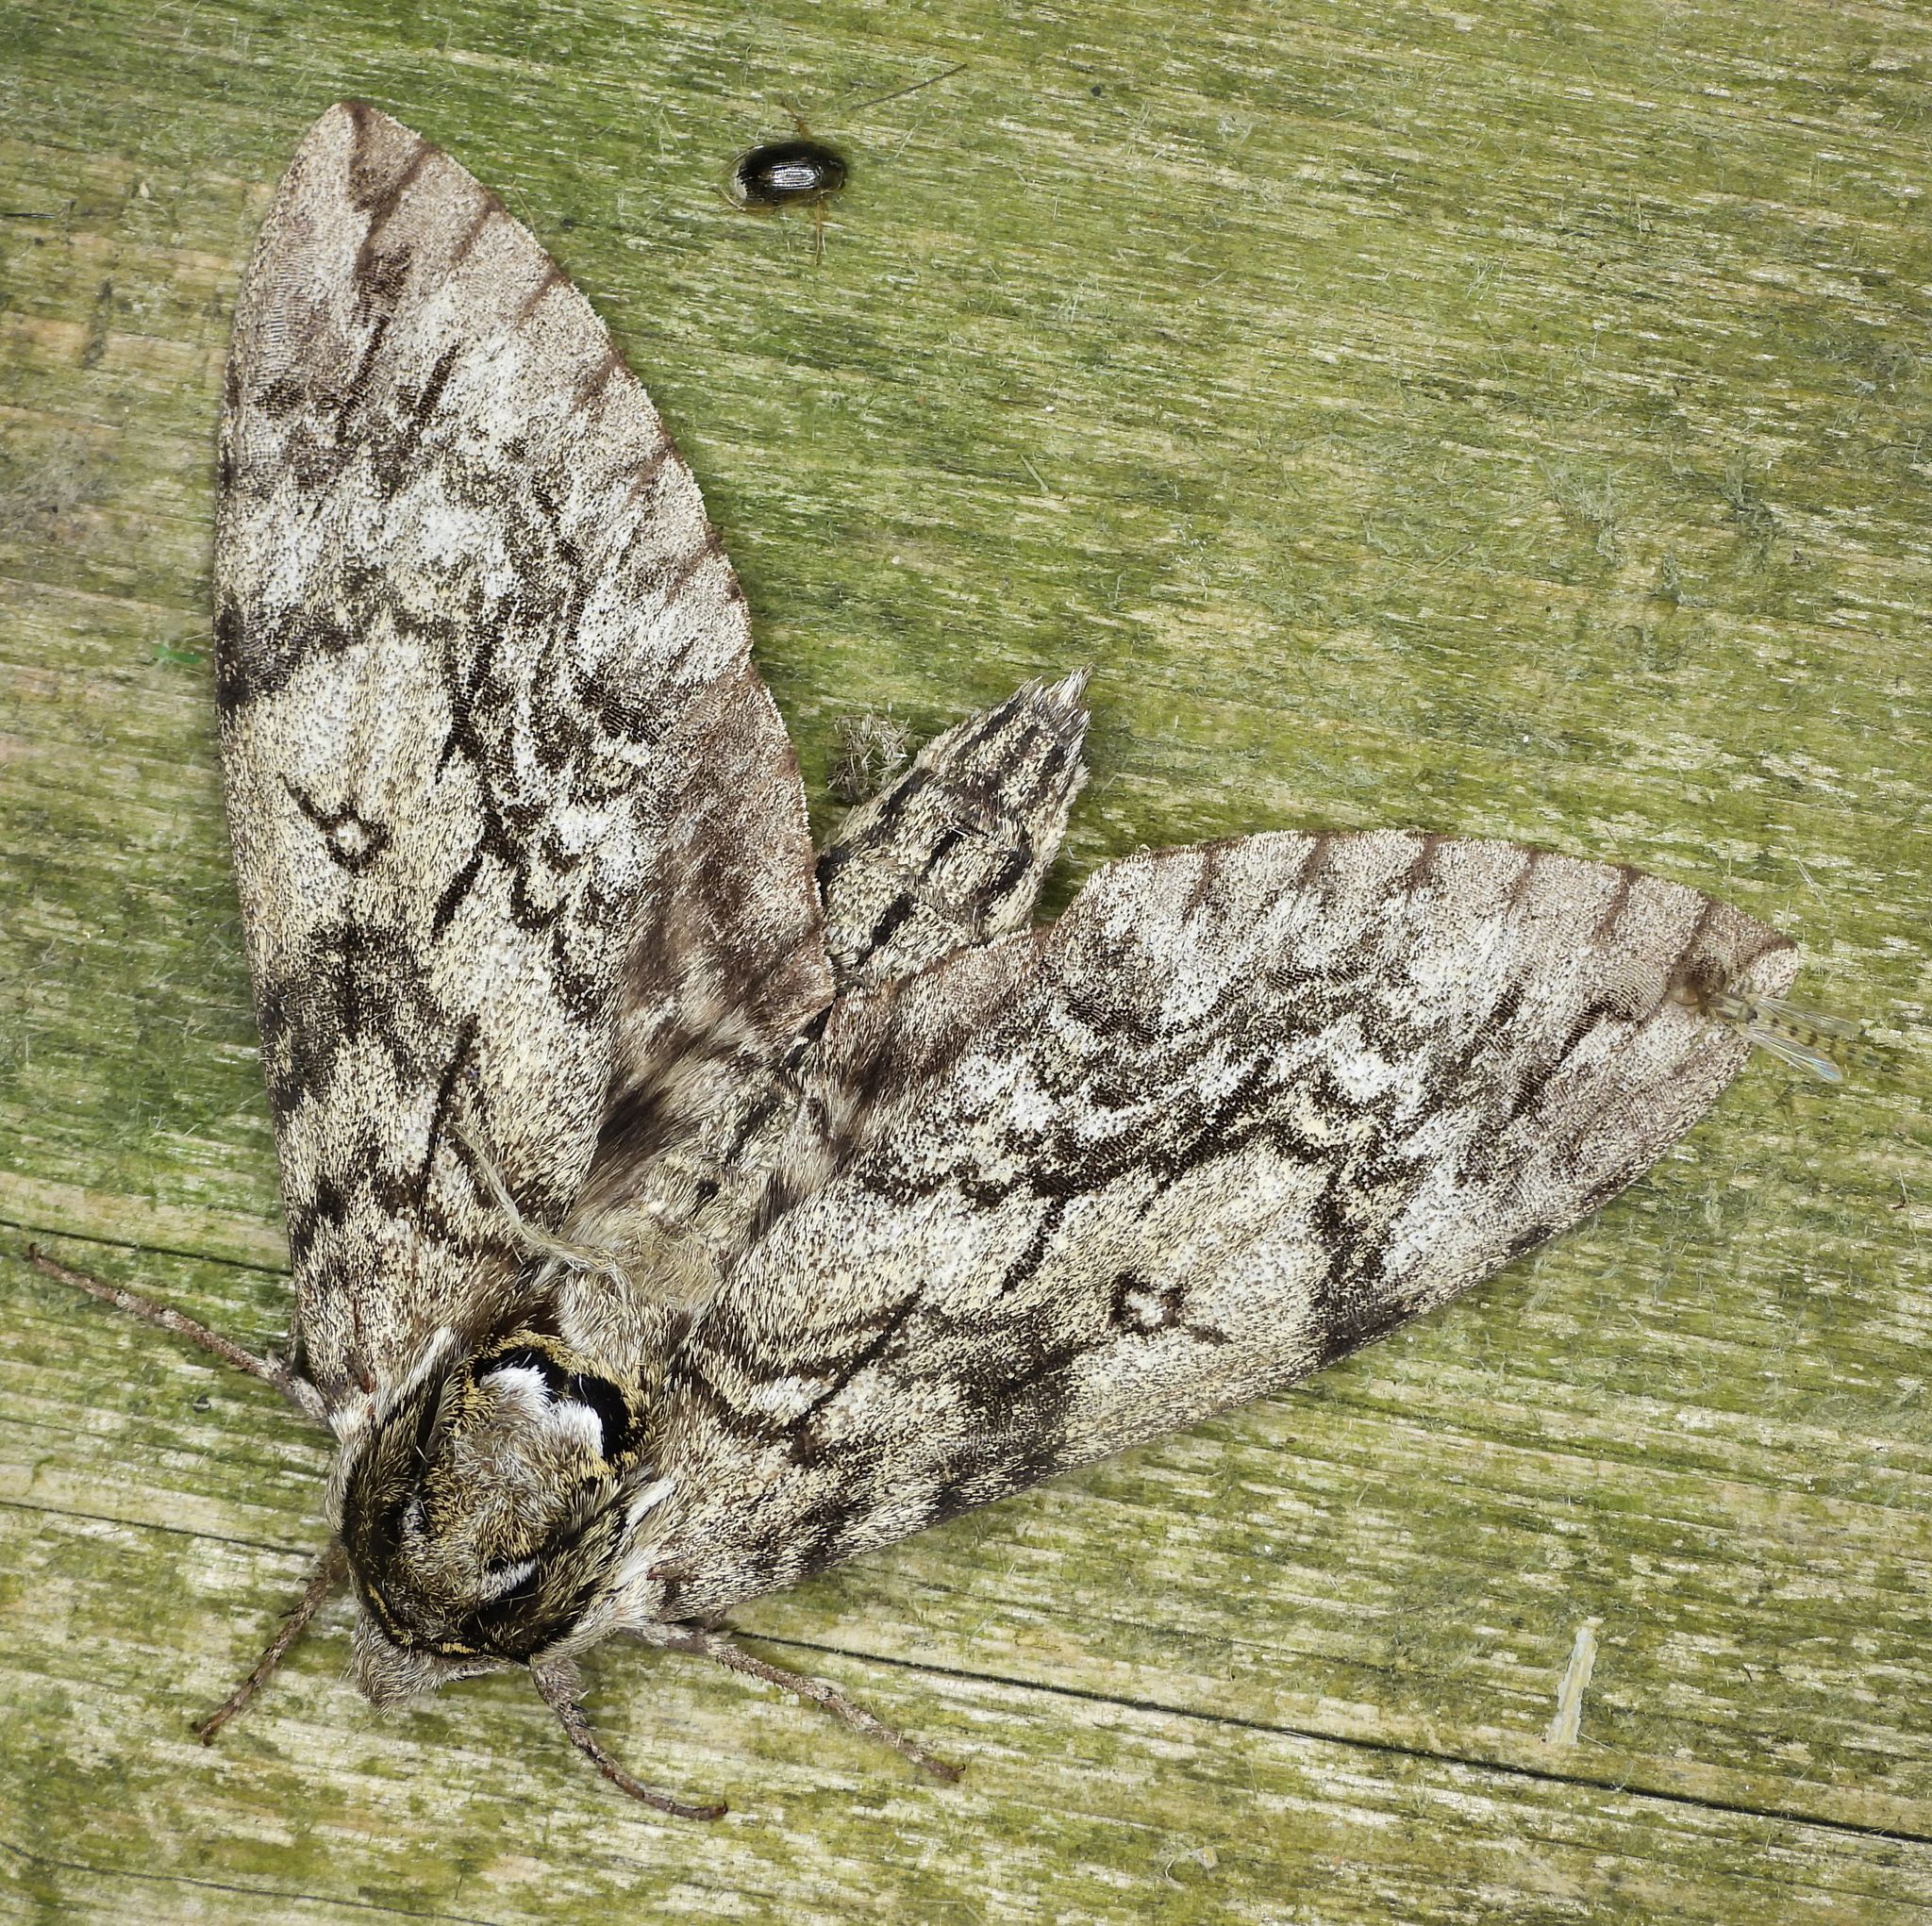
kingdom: Animalia
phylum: Arthropoda
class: Insecta
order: Lepidoptera
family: Sphingidae
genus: Ceratomia
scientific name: Ceratomia undulosa
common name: Waved sphinx
